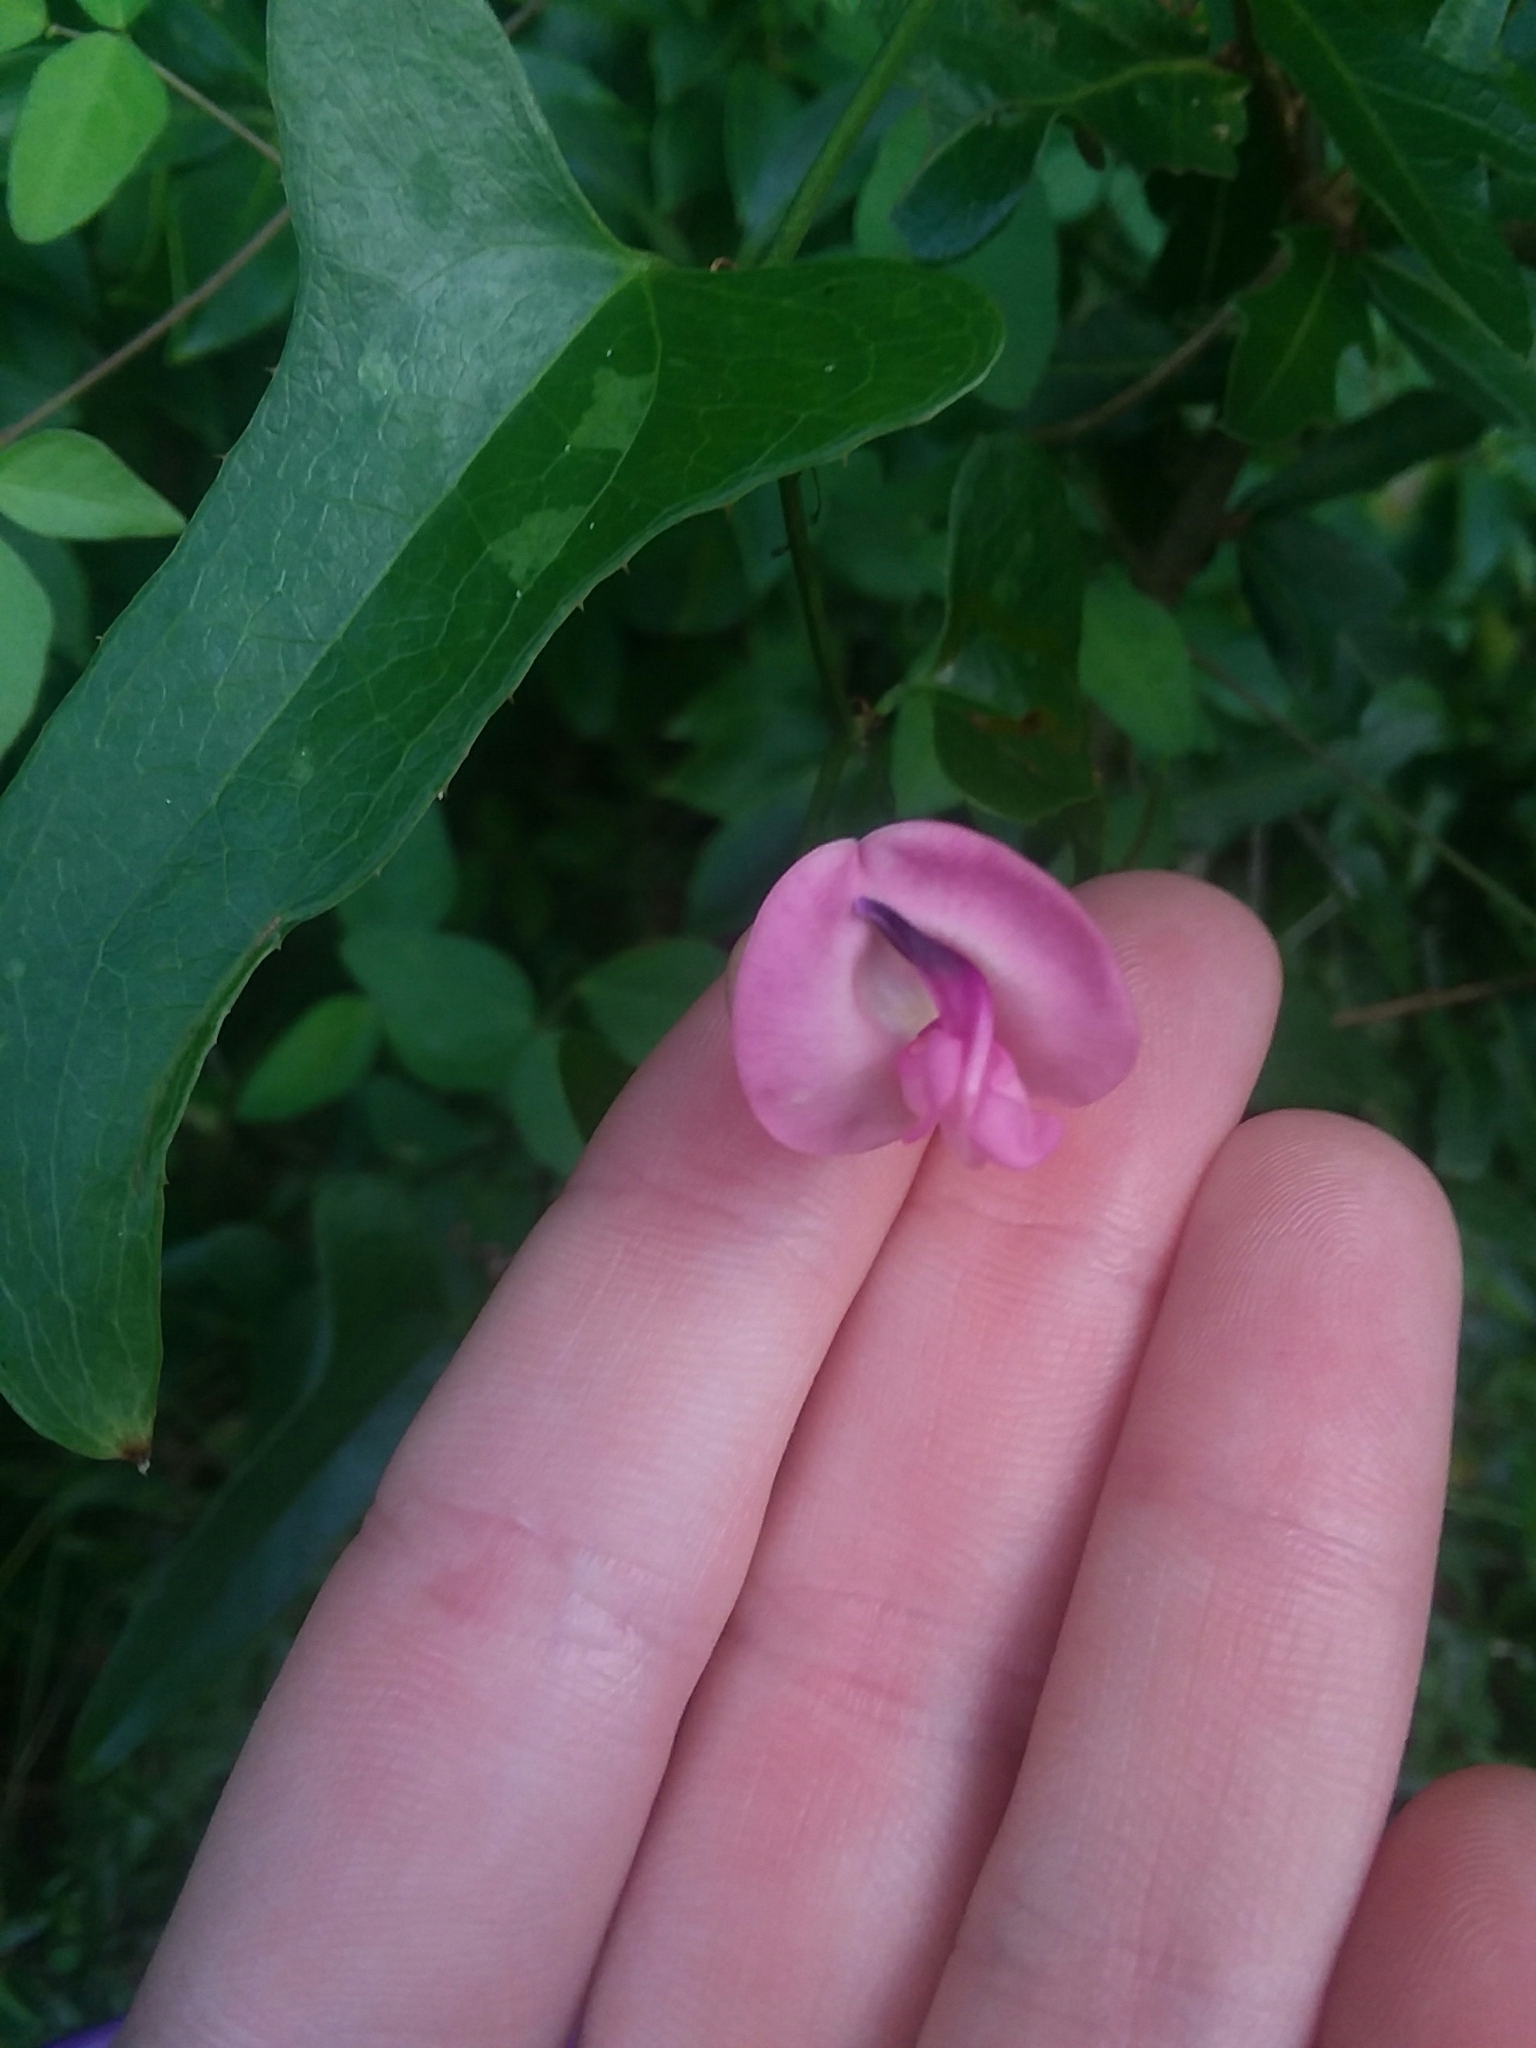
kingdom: Plantae
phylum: Tracheophyta
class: Magnoliopsida
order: Fabales
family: Fabaceae
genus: Strophostyles
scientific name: Strophostyles umbellata
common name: Perennial wild bean
